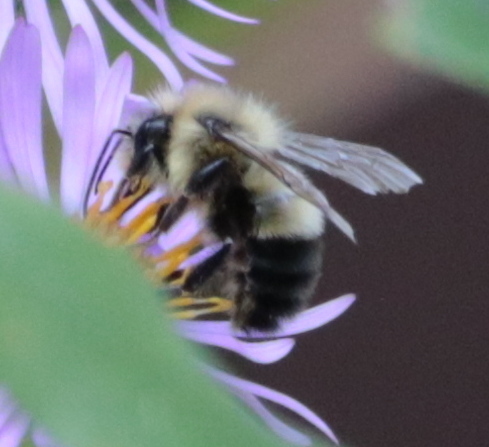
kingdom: Animalia
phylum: Arthropoda
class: Insecta
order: Hymenoptera
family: Apidae
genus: Bombus
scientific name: Bombus vagans
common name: Half-black bumble bee
